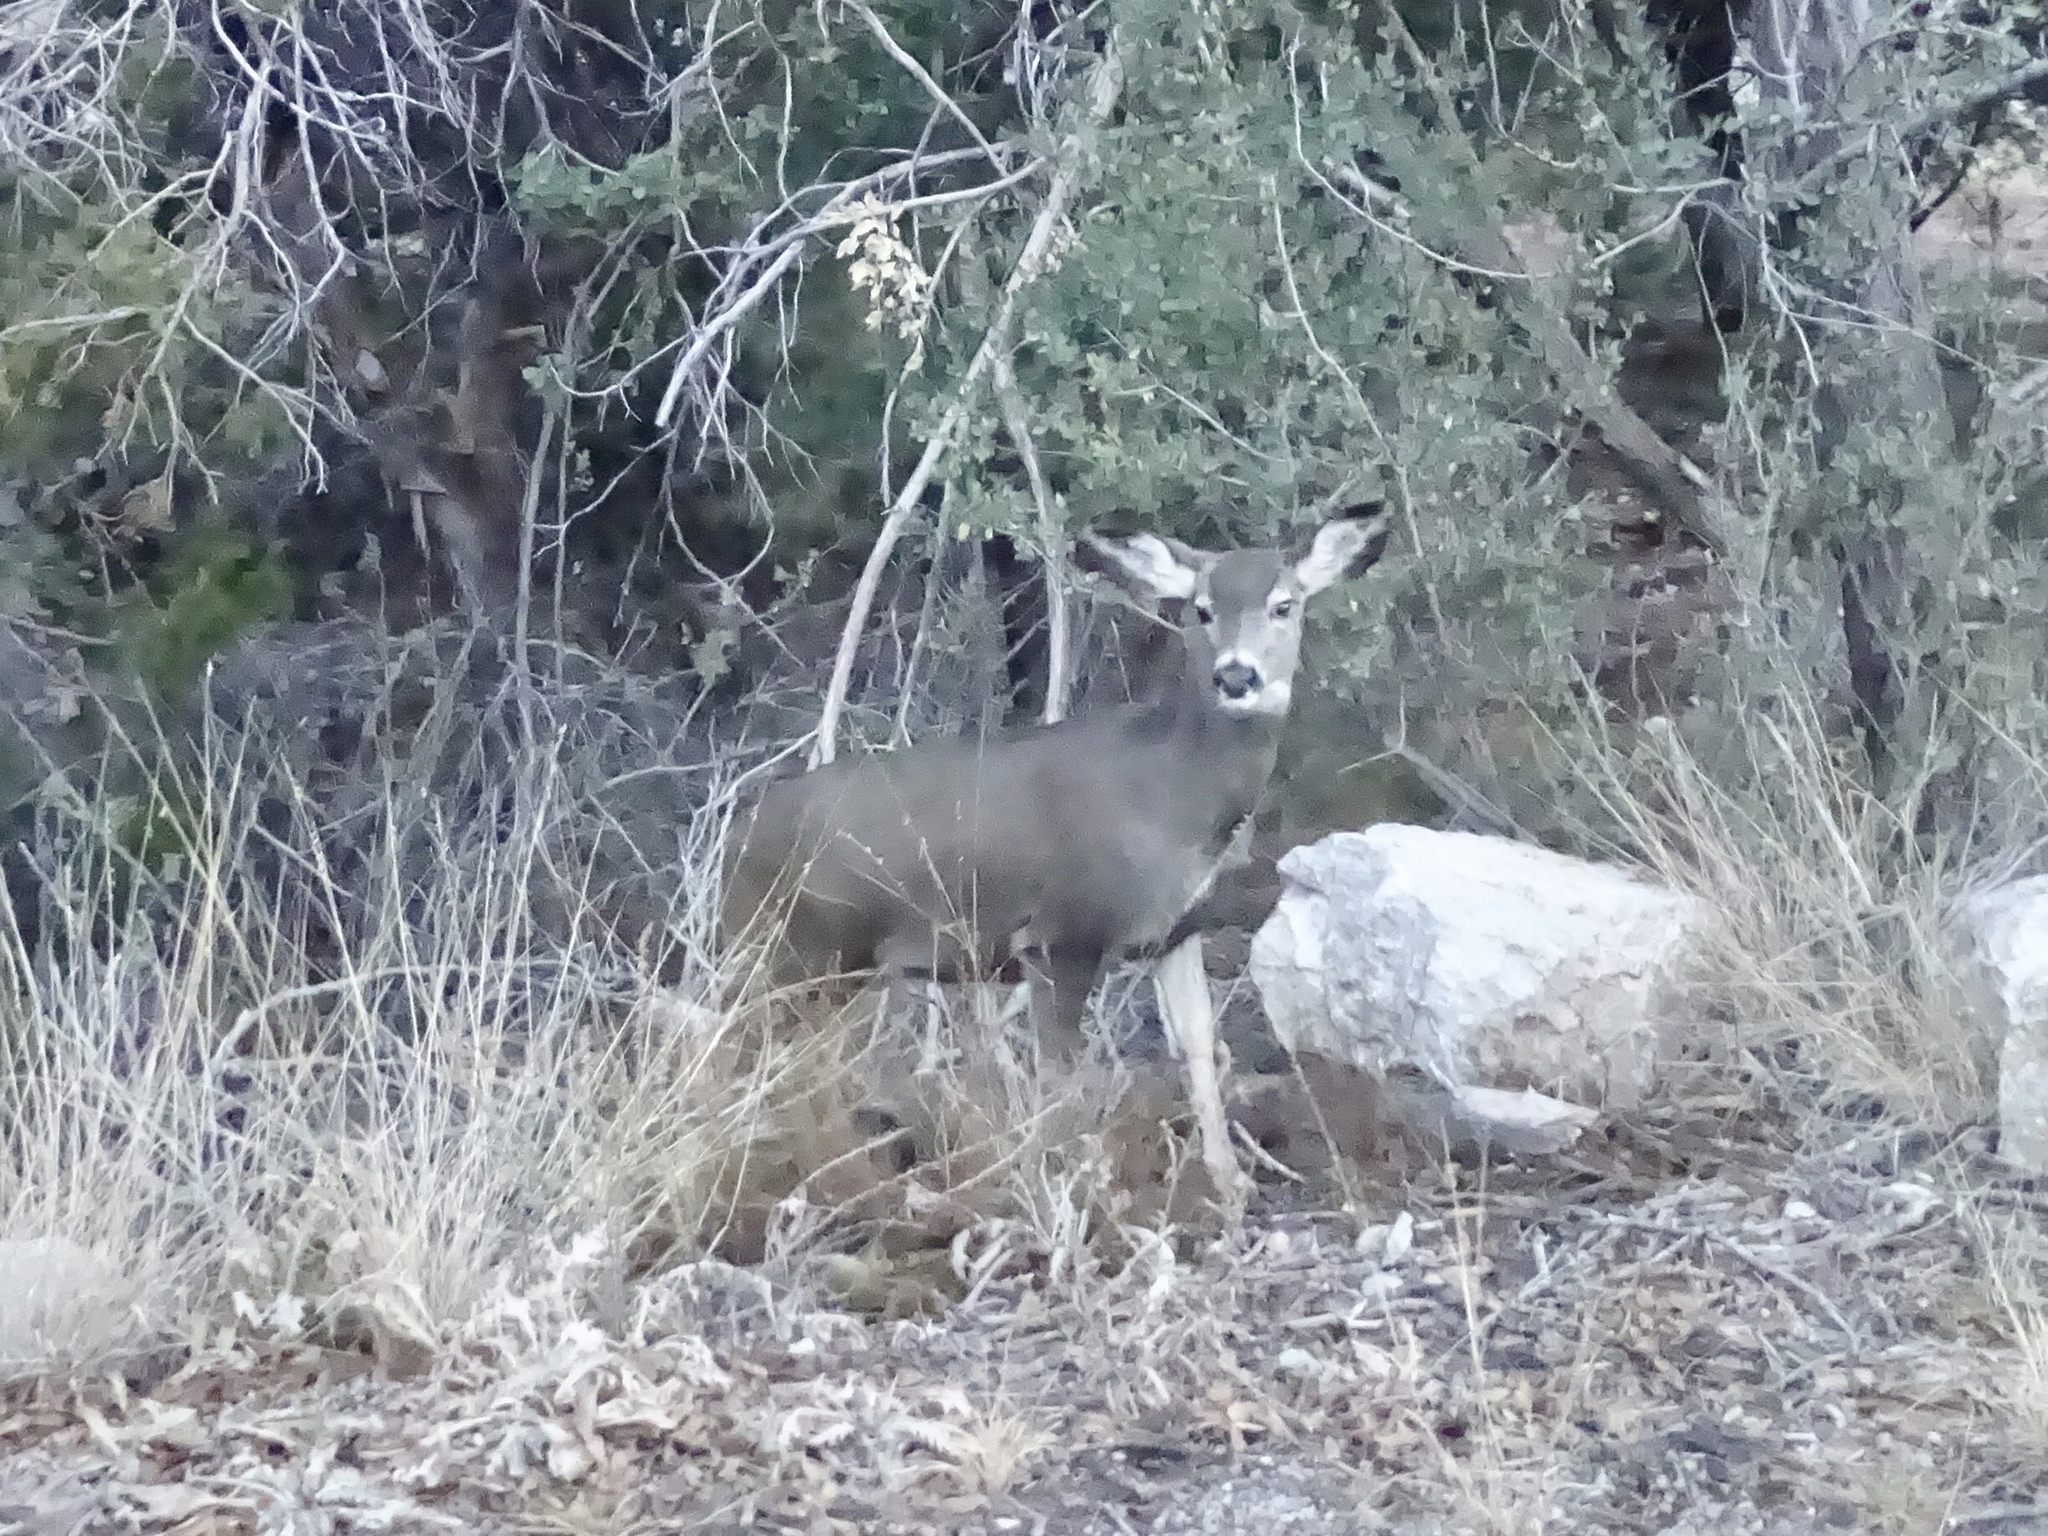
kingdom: Animalia
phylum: Chordata
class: Mammalia
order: Artiodactyla
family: Cervidae
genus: Odocoileus
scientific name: Odocoileus hemionus
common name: Mule deer
